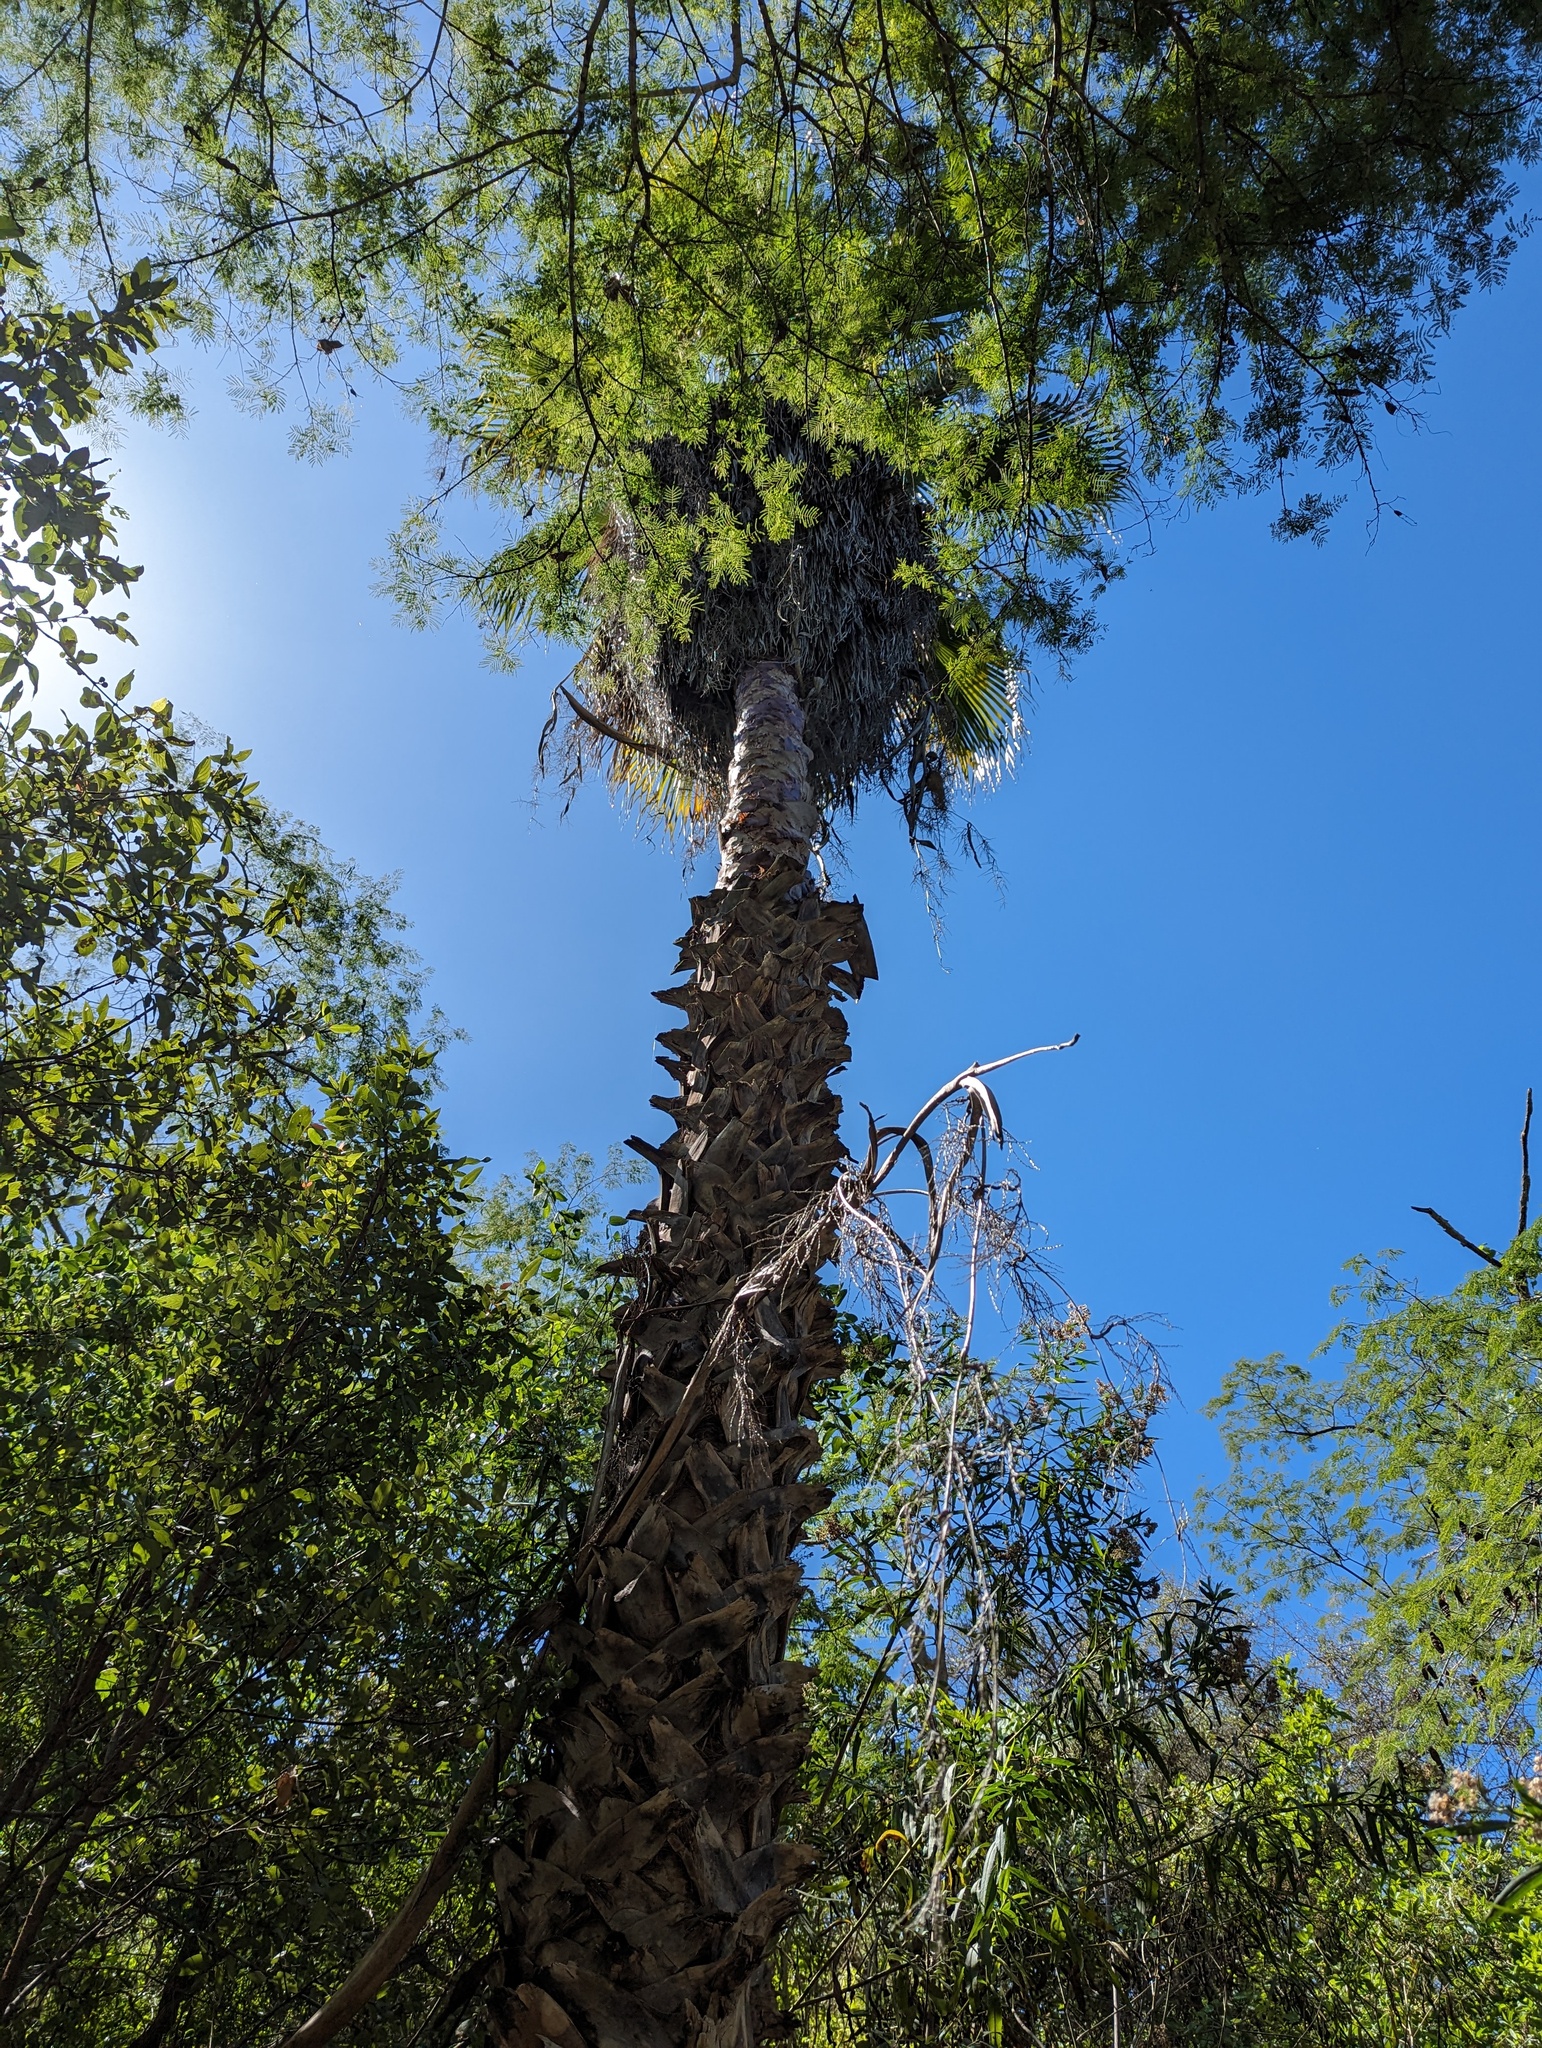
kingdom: Plantae
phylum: Tracheophyta
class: Liliopsida
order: Arecales
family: Arecaceae
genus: Washingtonia
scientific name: Washingtonia robusta
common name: Mexican fan palm
